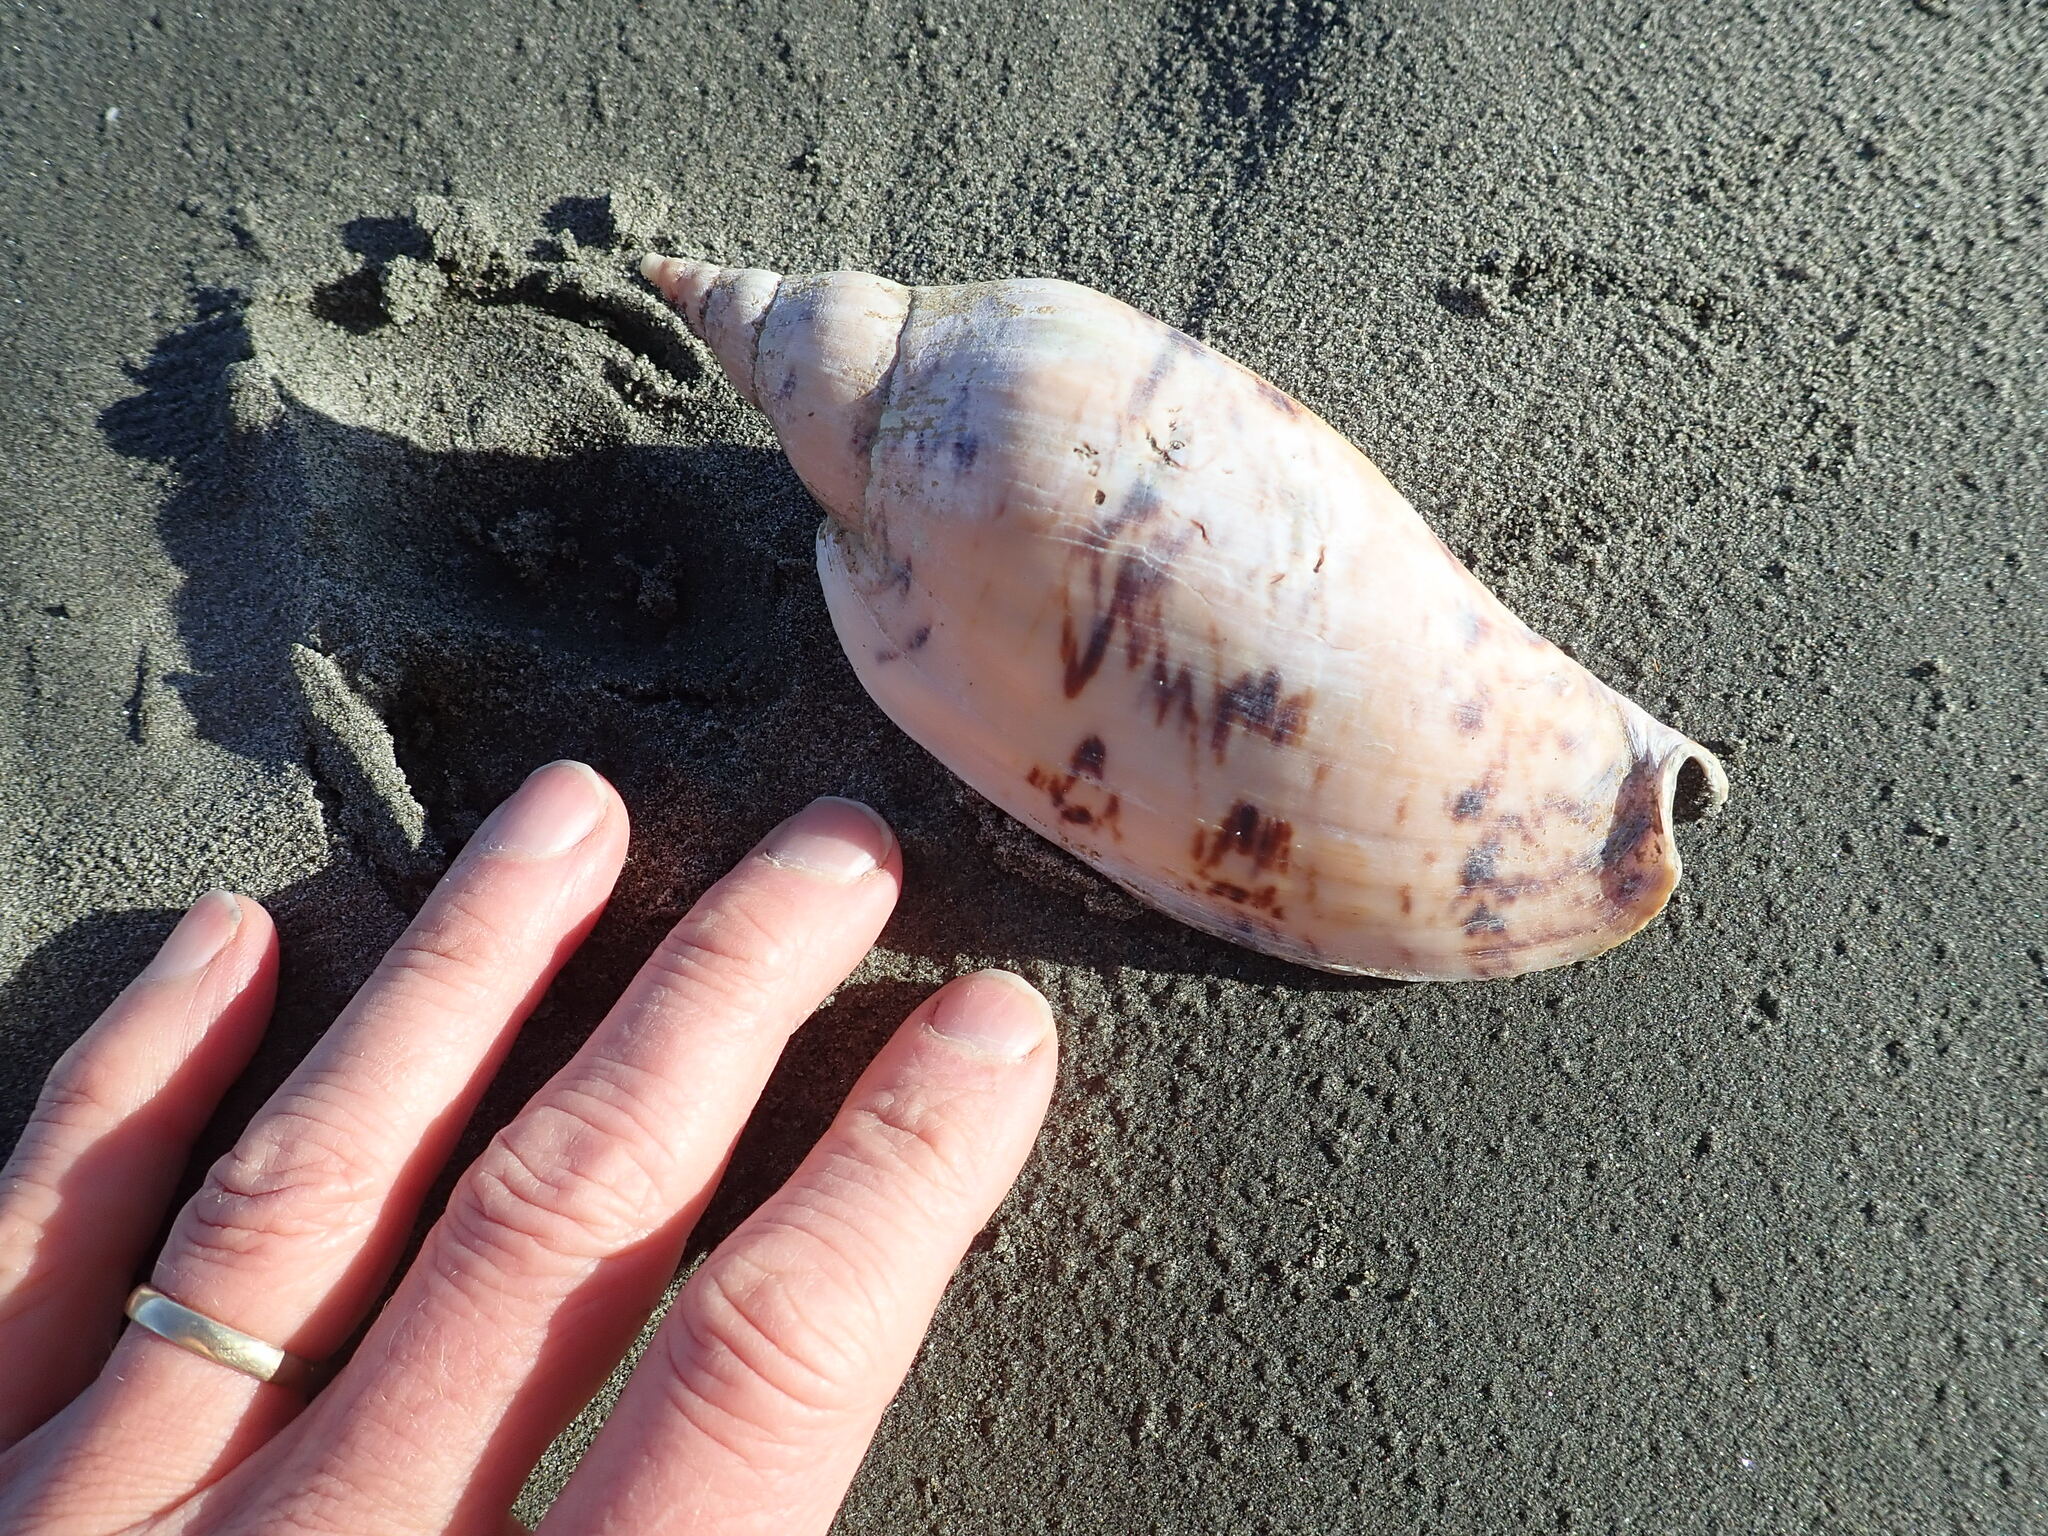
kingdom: Animalia
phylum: Mollusca
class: Gastropoda
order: Neogastropoda
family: Volutidae
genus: Alcithoe
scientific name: Alcithoe arabica
